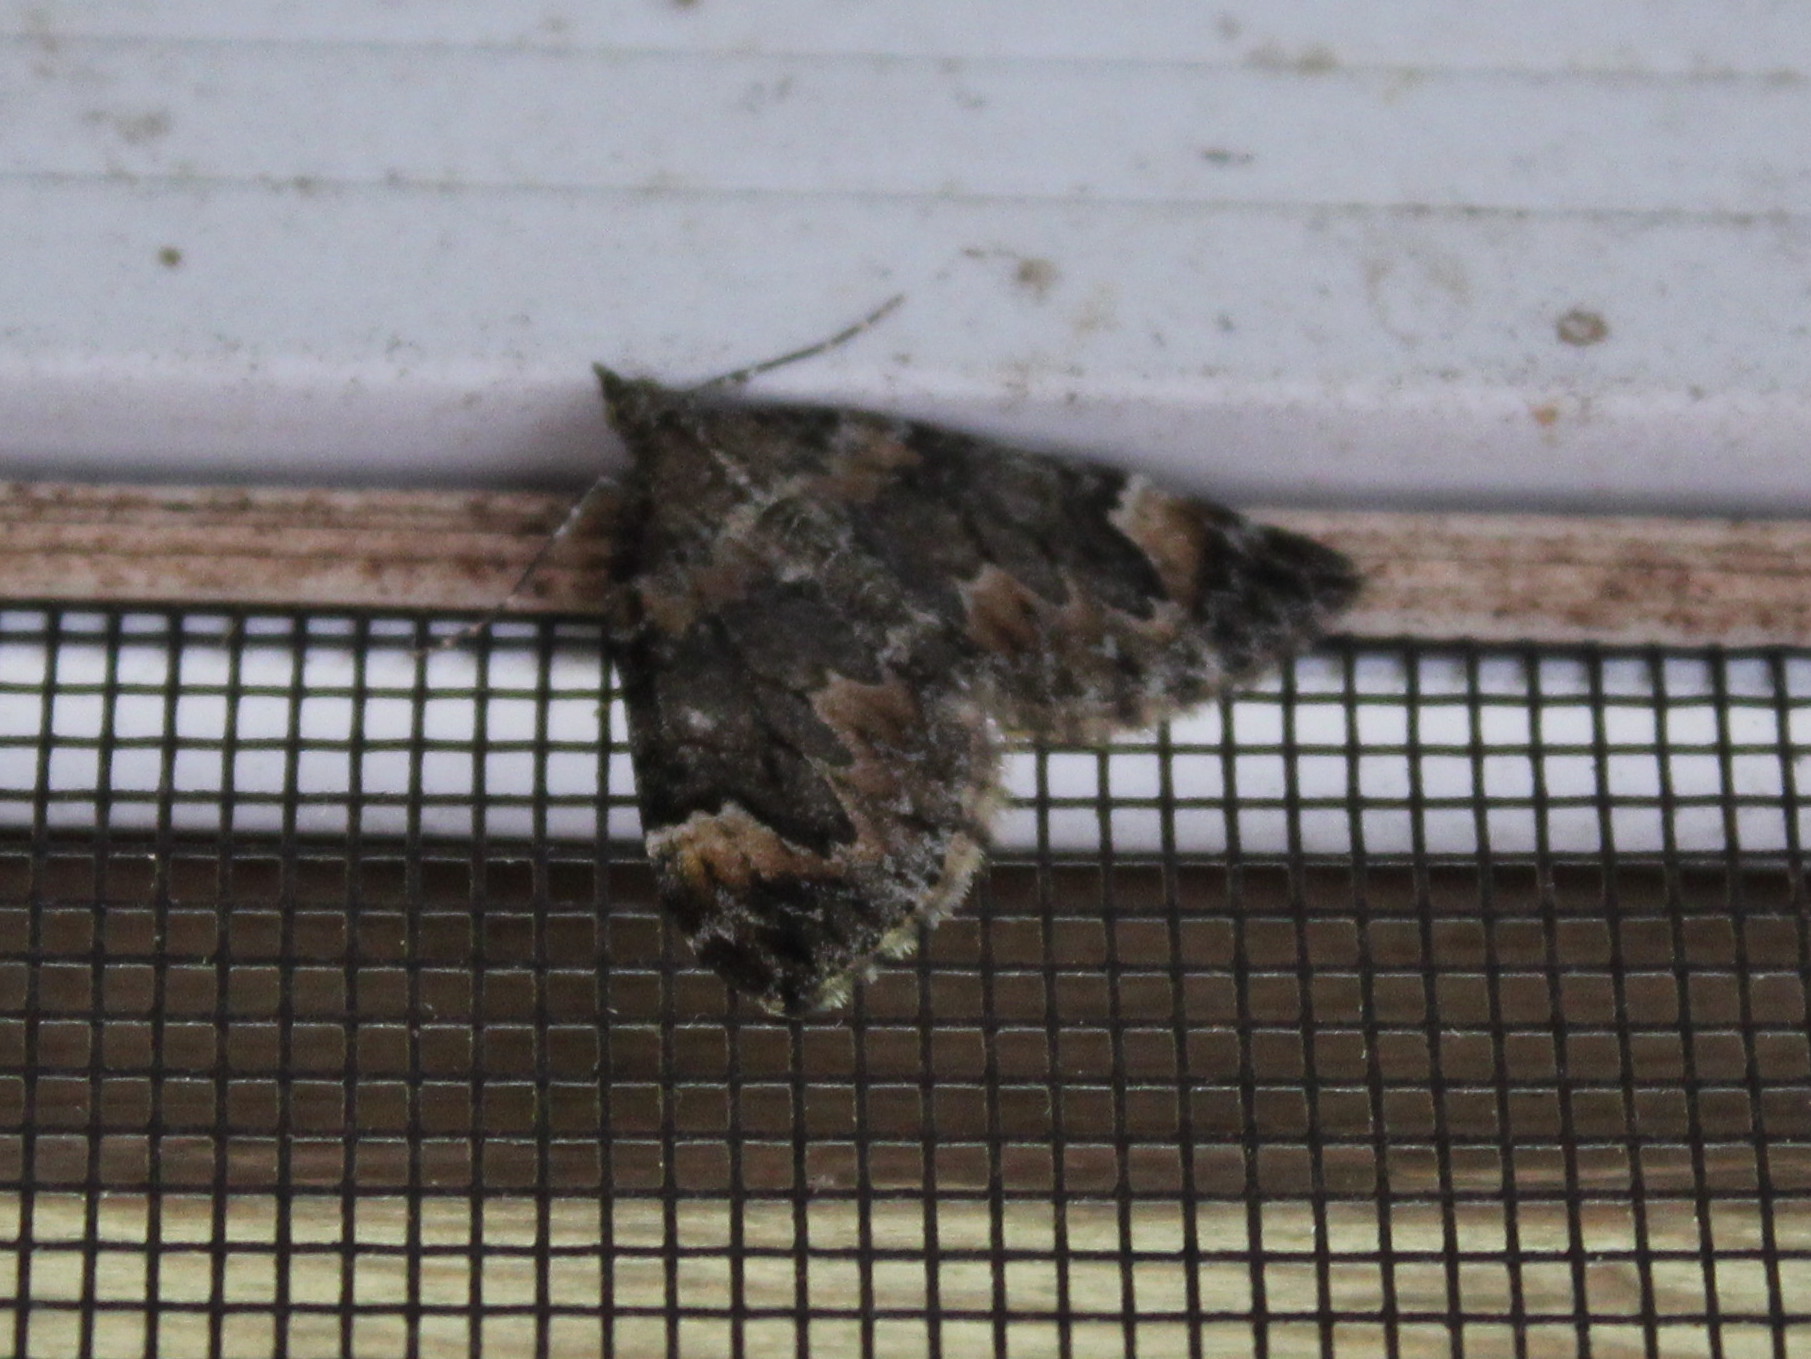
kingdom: Animalia
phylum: Arthropoda
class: Insecta
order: Lepidoptera
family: Geometridae
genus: Dysstroma
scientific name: Dysstroma citrata
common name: Dark marbled carpet
